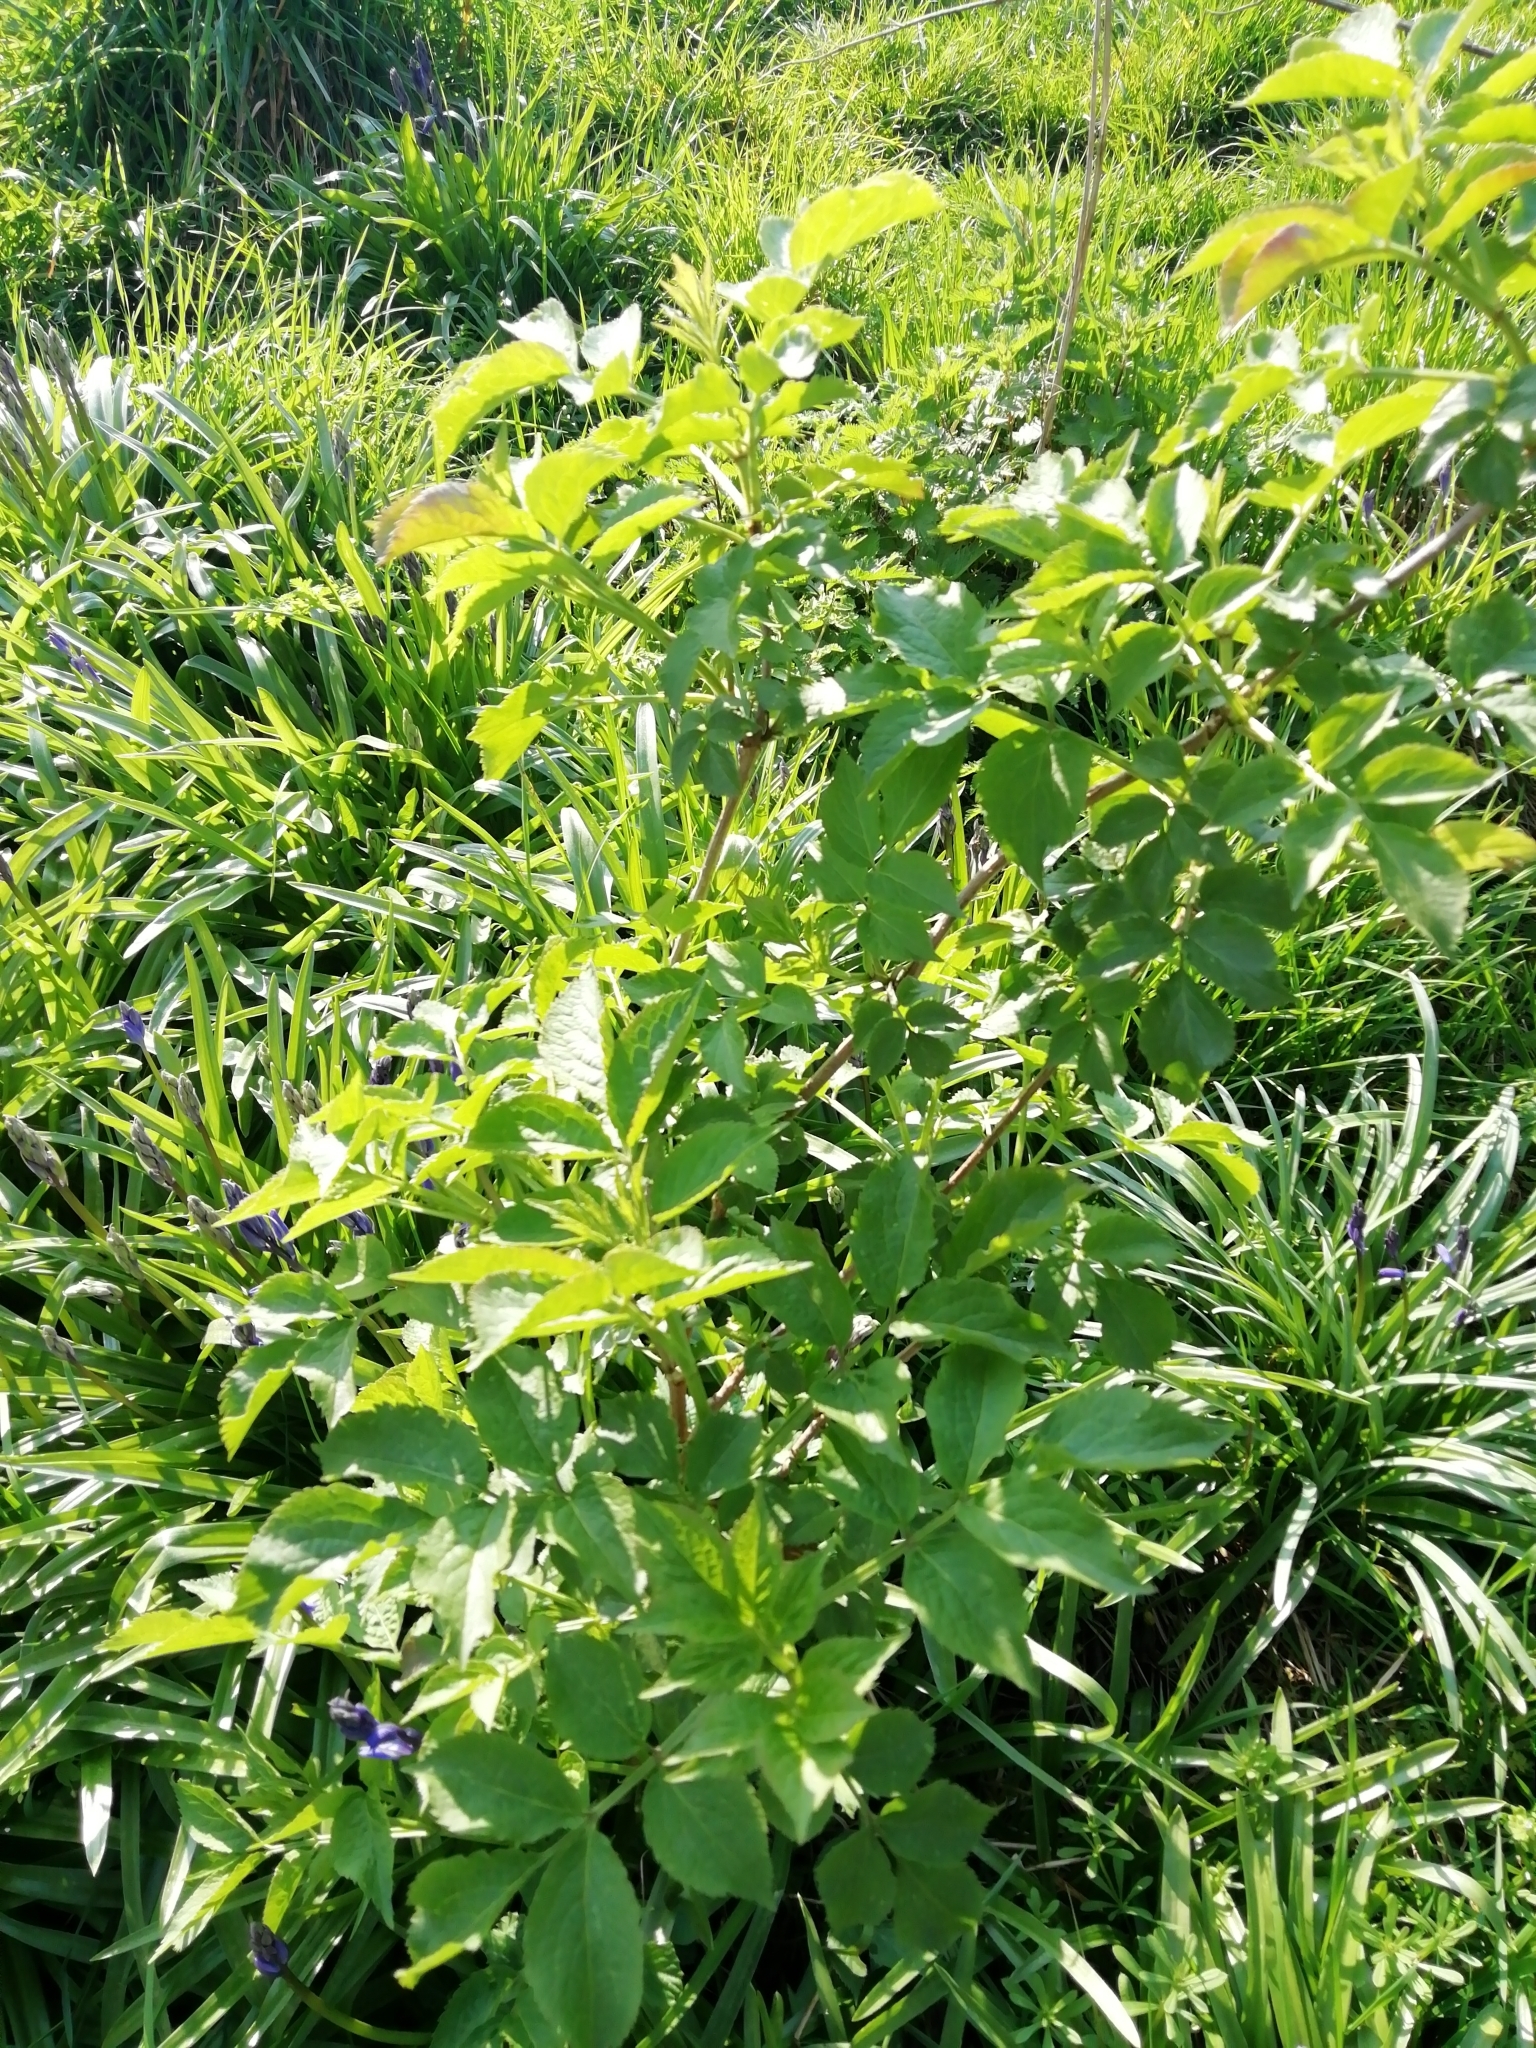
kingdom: Plantae
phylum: Tracheophyta
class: Magnoliopsida
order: Dipsacales
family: Viburnaceae
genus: Sambucus
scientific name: Sambucus nigra
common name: Elder
